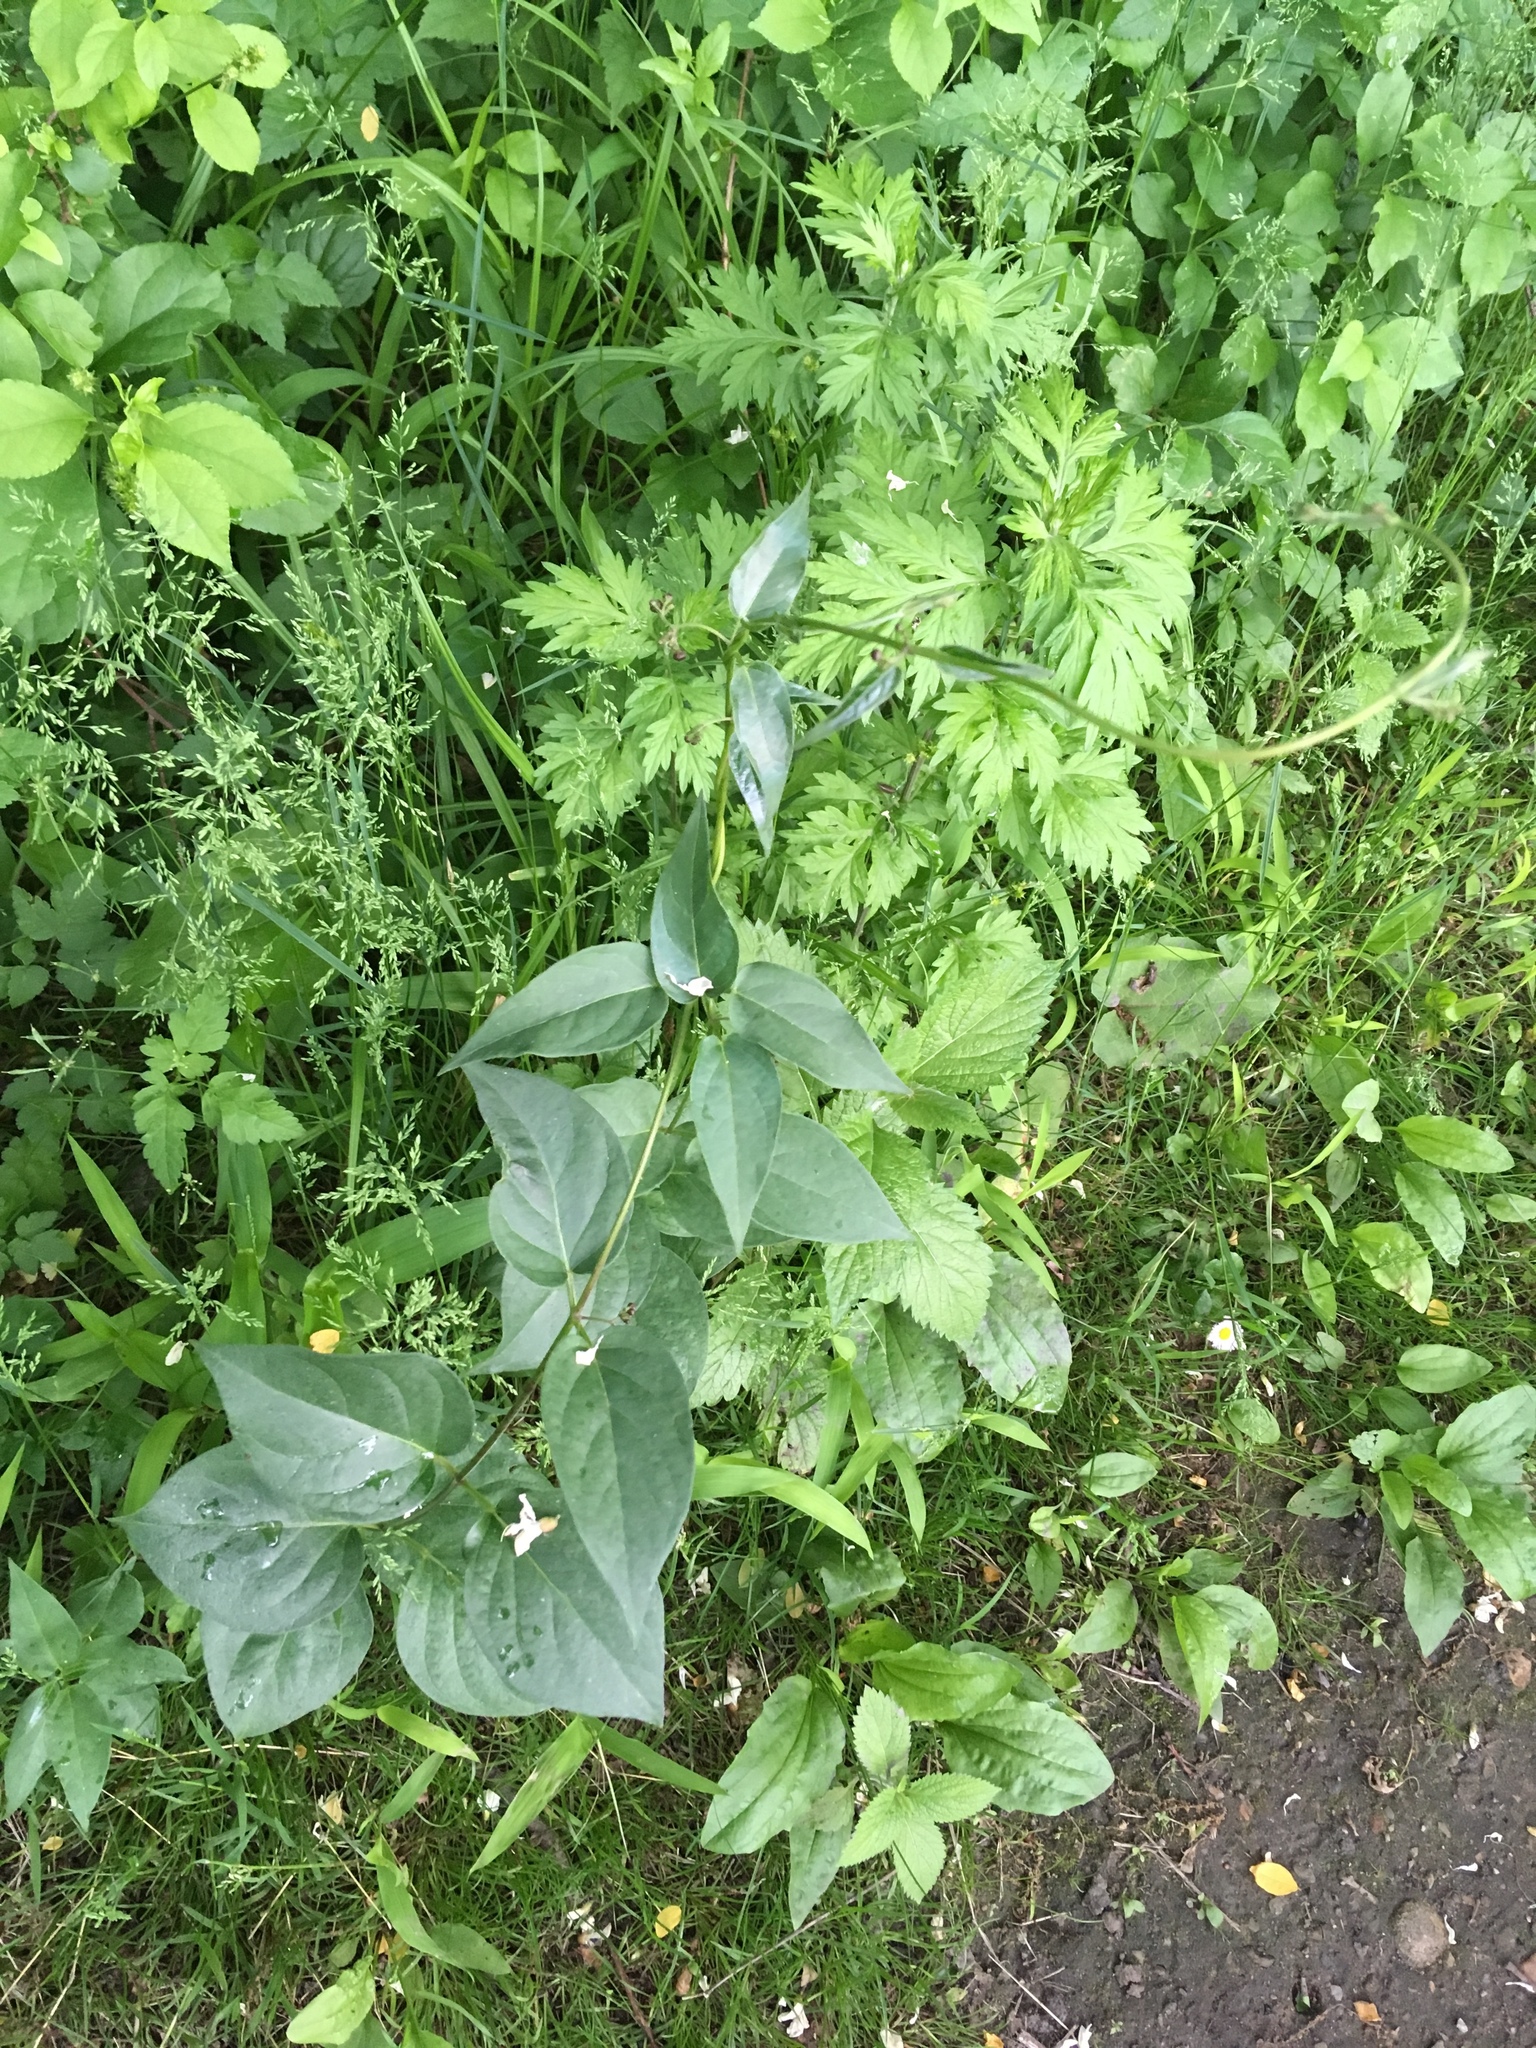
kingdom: Plantae
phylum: Tracheophyta
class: Magnoliopsida
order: Gentianales
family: Apocynaceae
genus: Vincetoxicum
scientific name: Vincetoxicum nigrum
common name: Black swallow-wort
